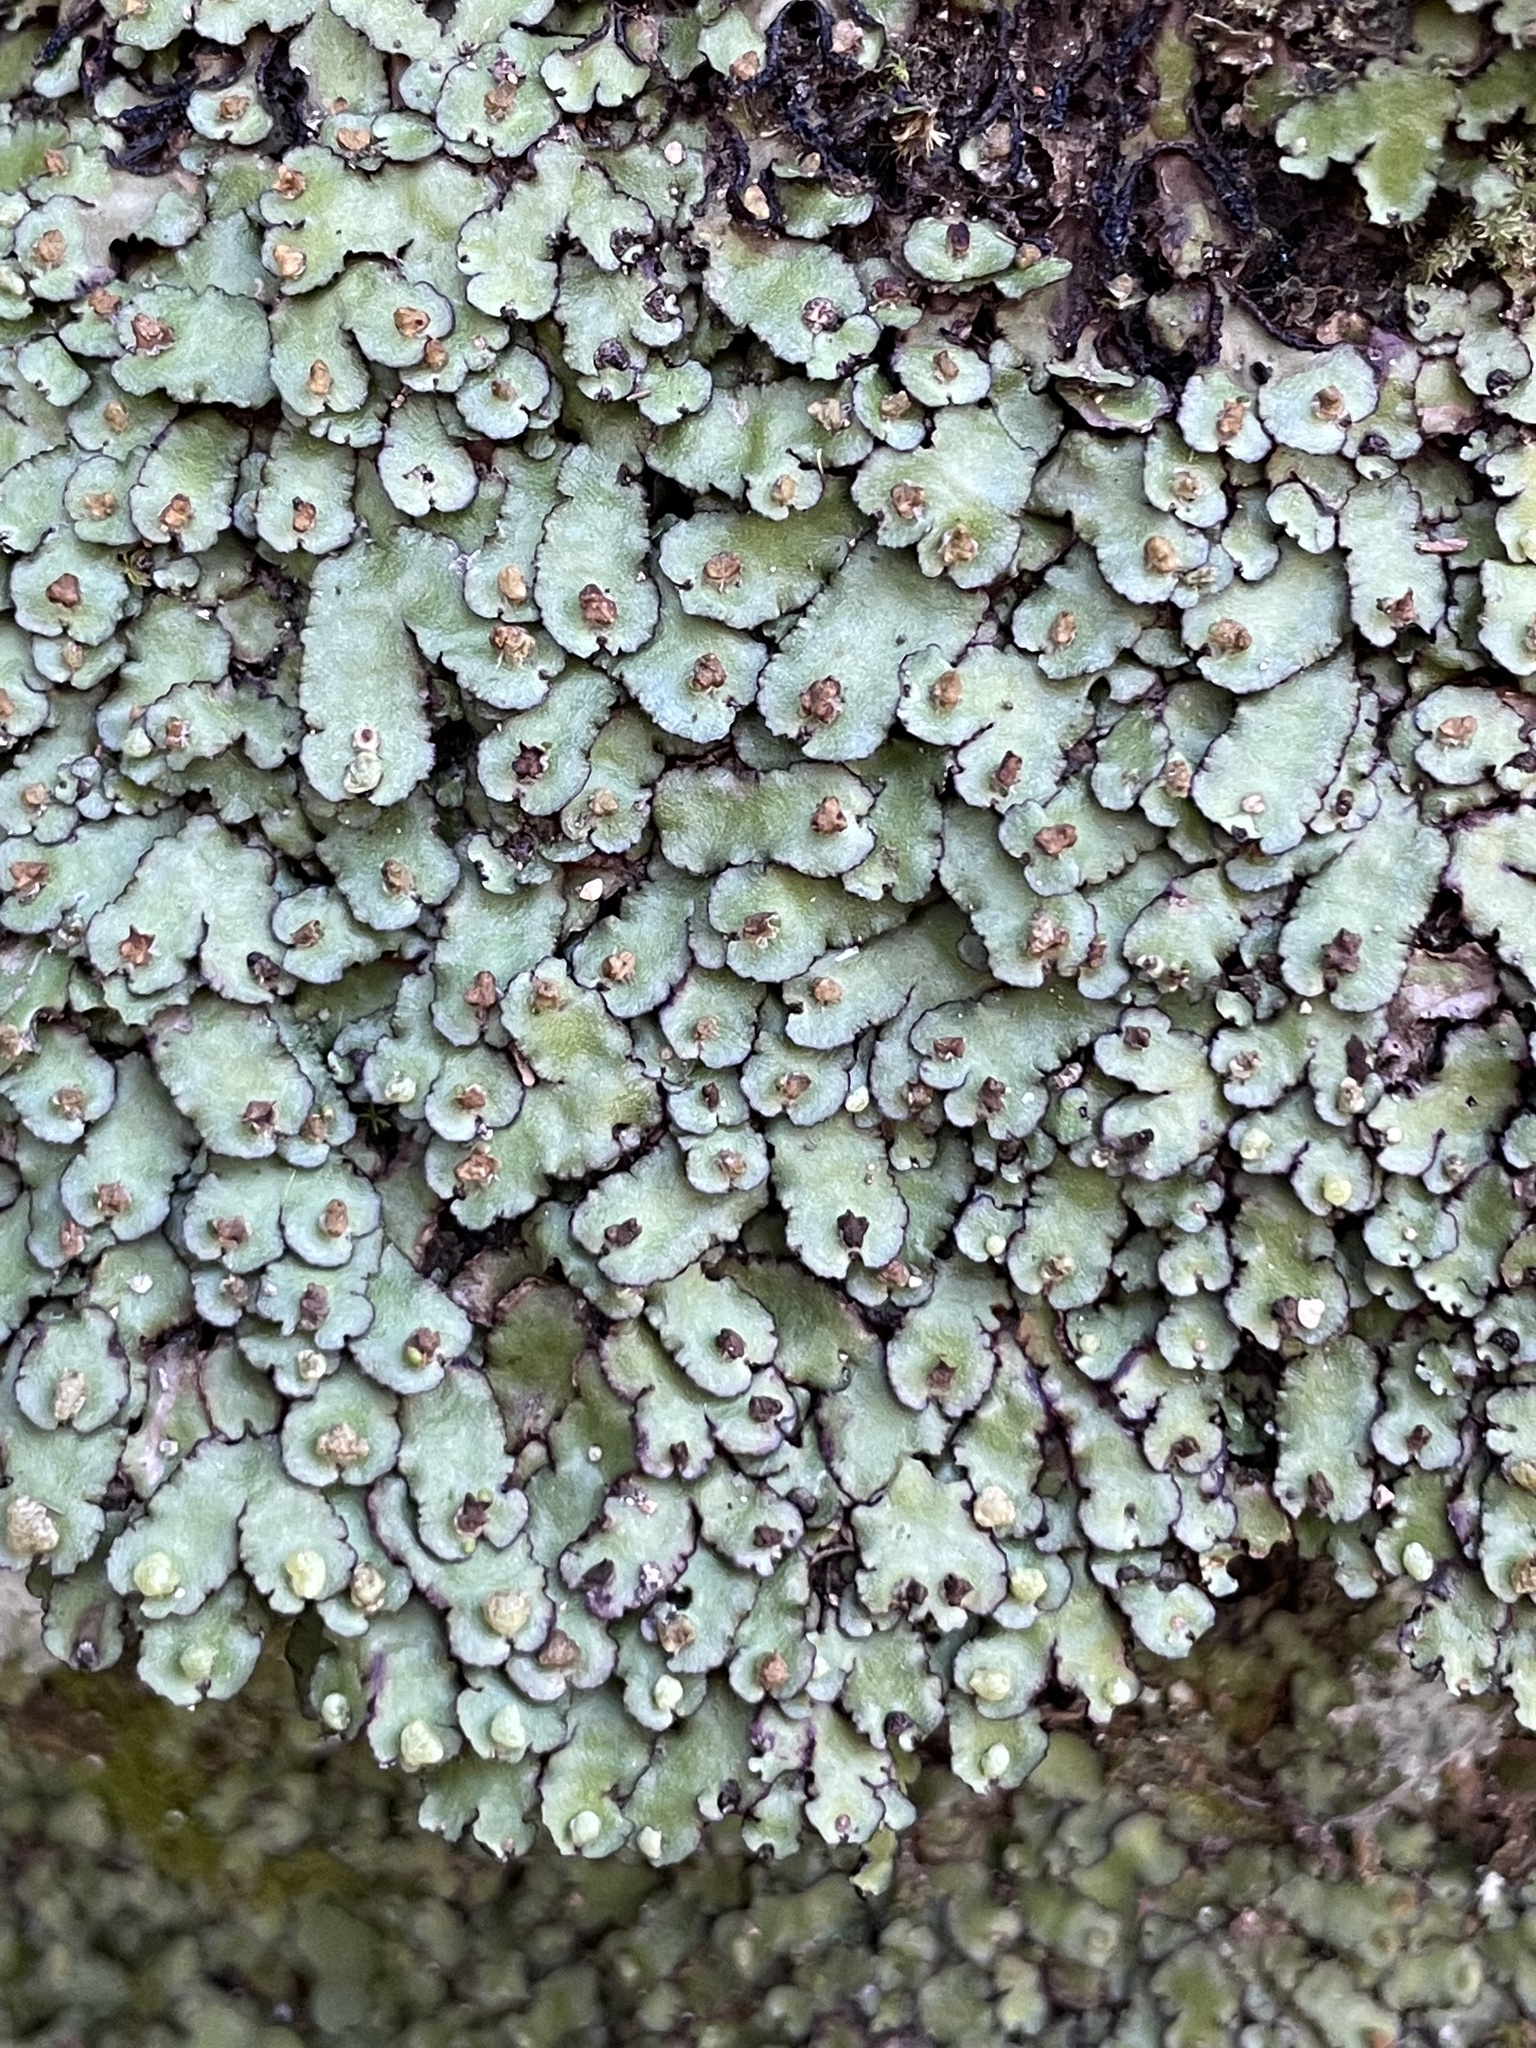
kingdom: Plantae
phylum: Marchantiophyta
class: Marchantiopsida
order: Marchantiales
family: Aytoniaceae
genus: Plagiochasma
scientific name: Plagiochasma rupestre
